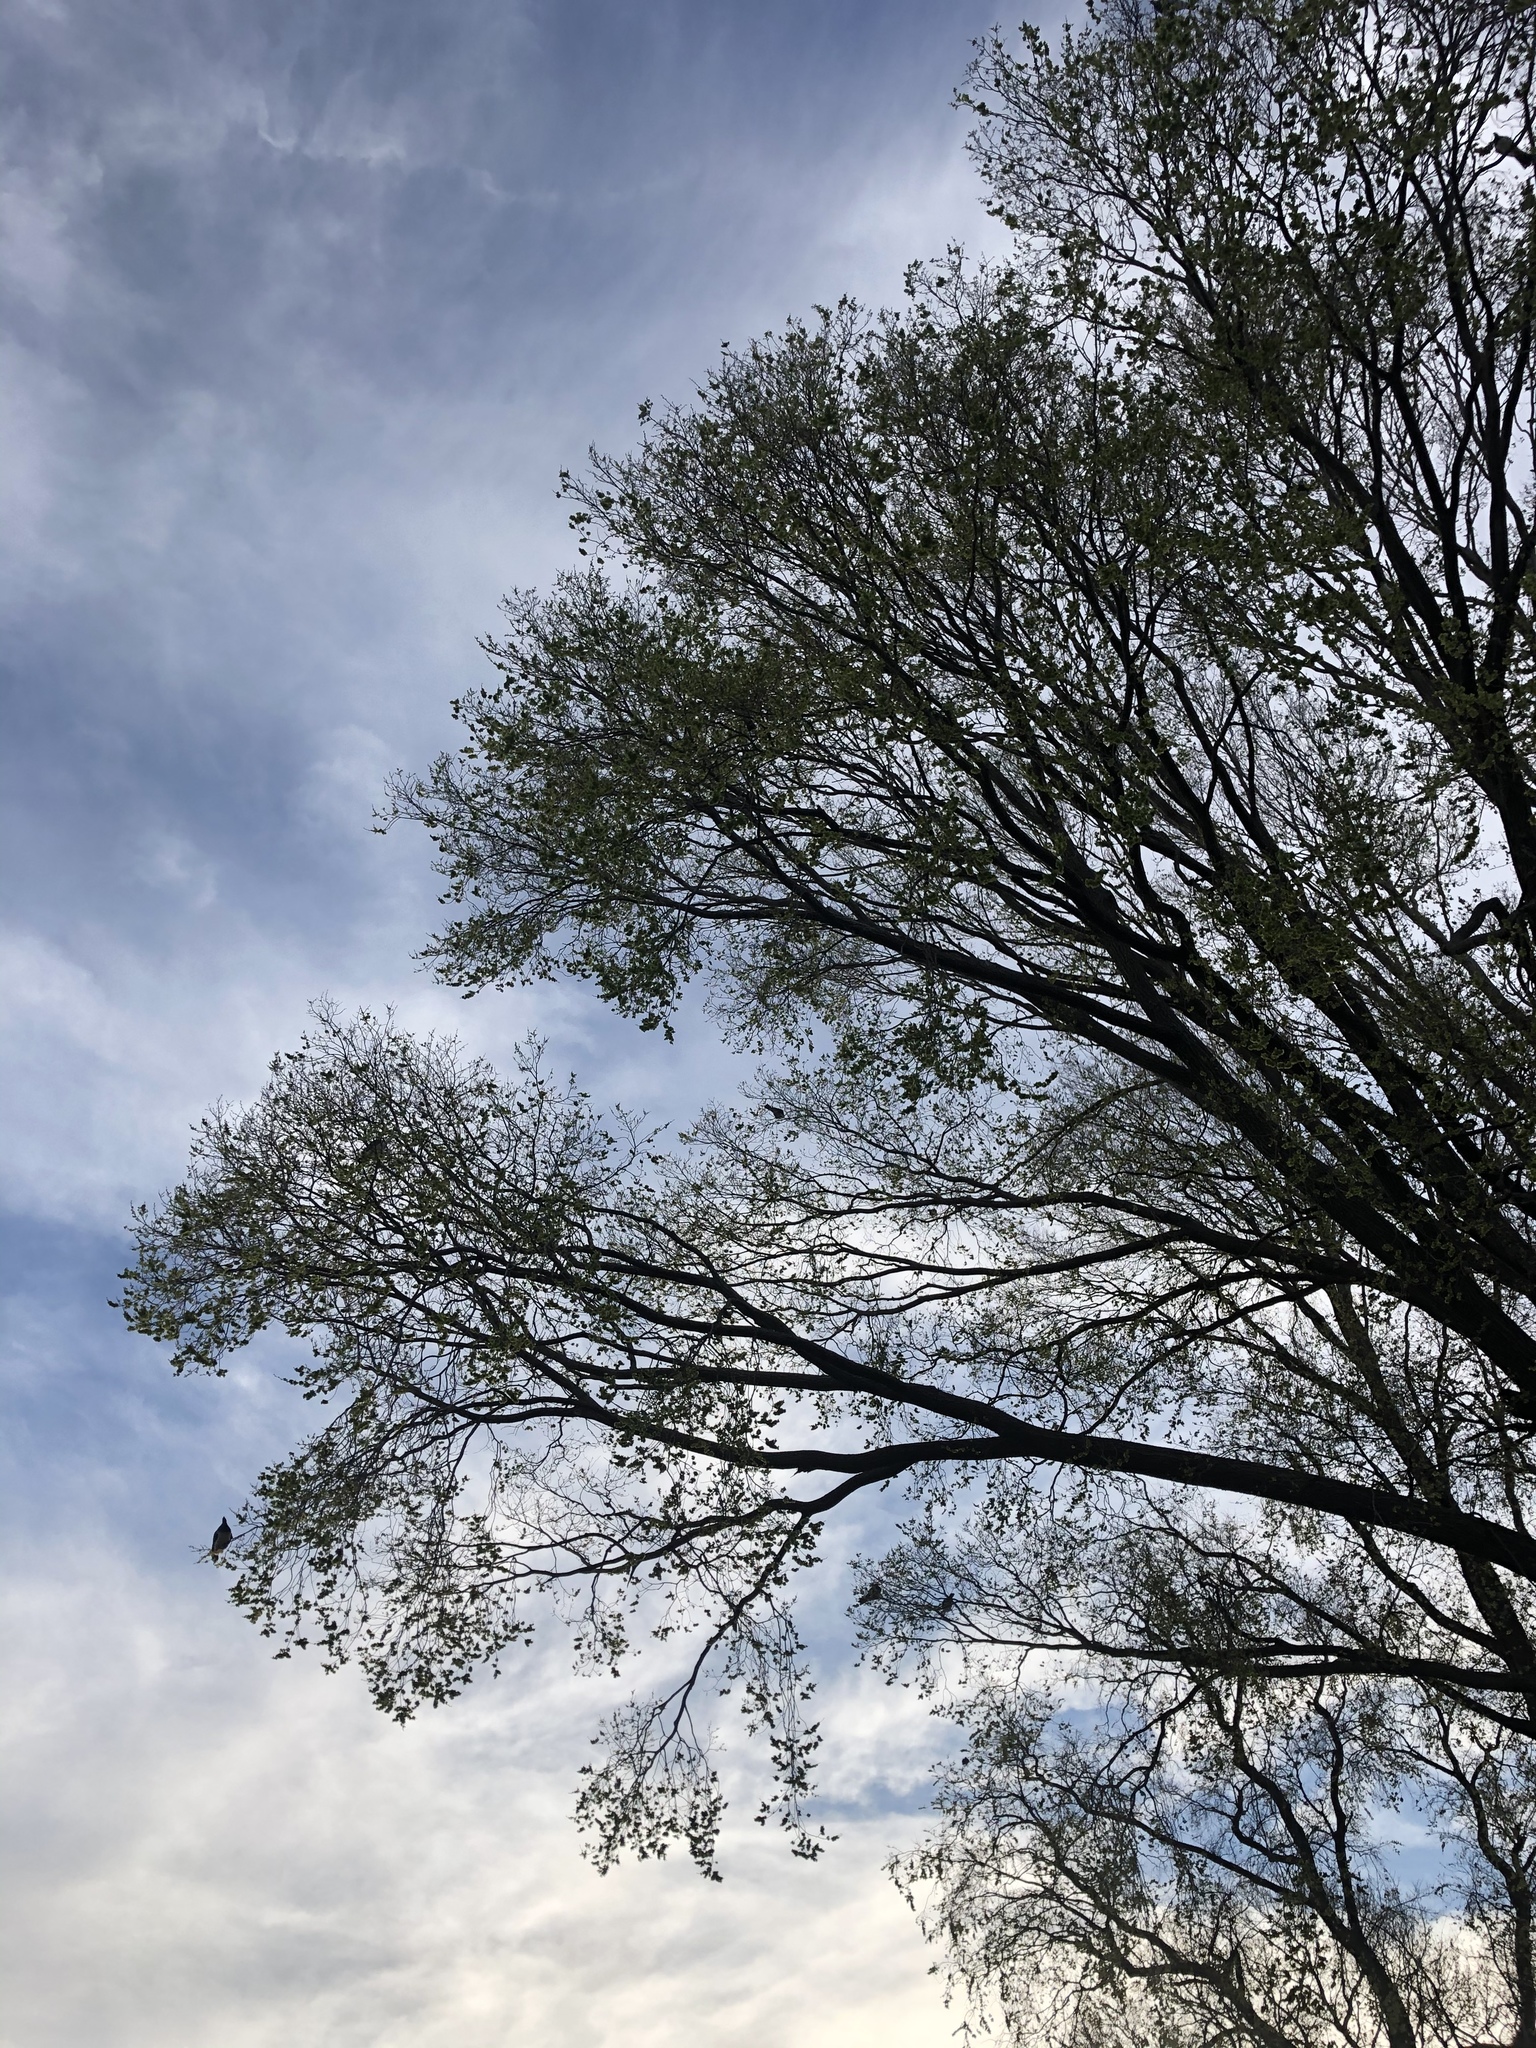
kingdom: Animalia
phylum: Chordata
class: Aves
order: Columbiformes
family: Columbidae
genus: Hemiphaga
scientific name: Hemiphaga novaeseelandiae
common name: New zealand pigeon
